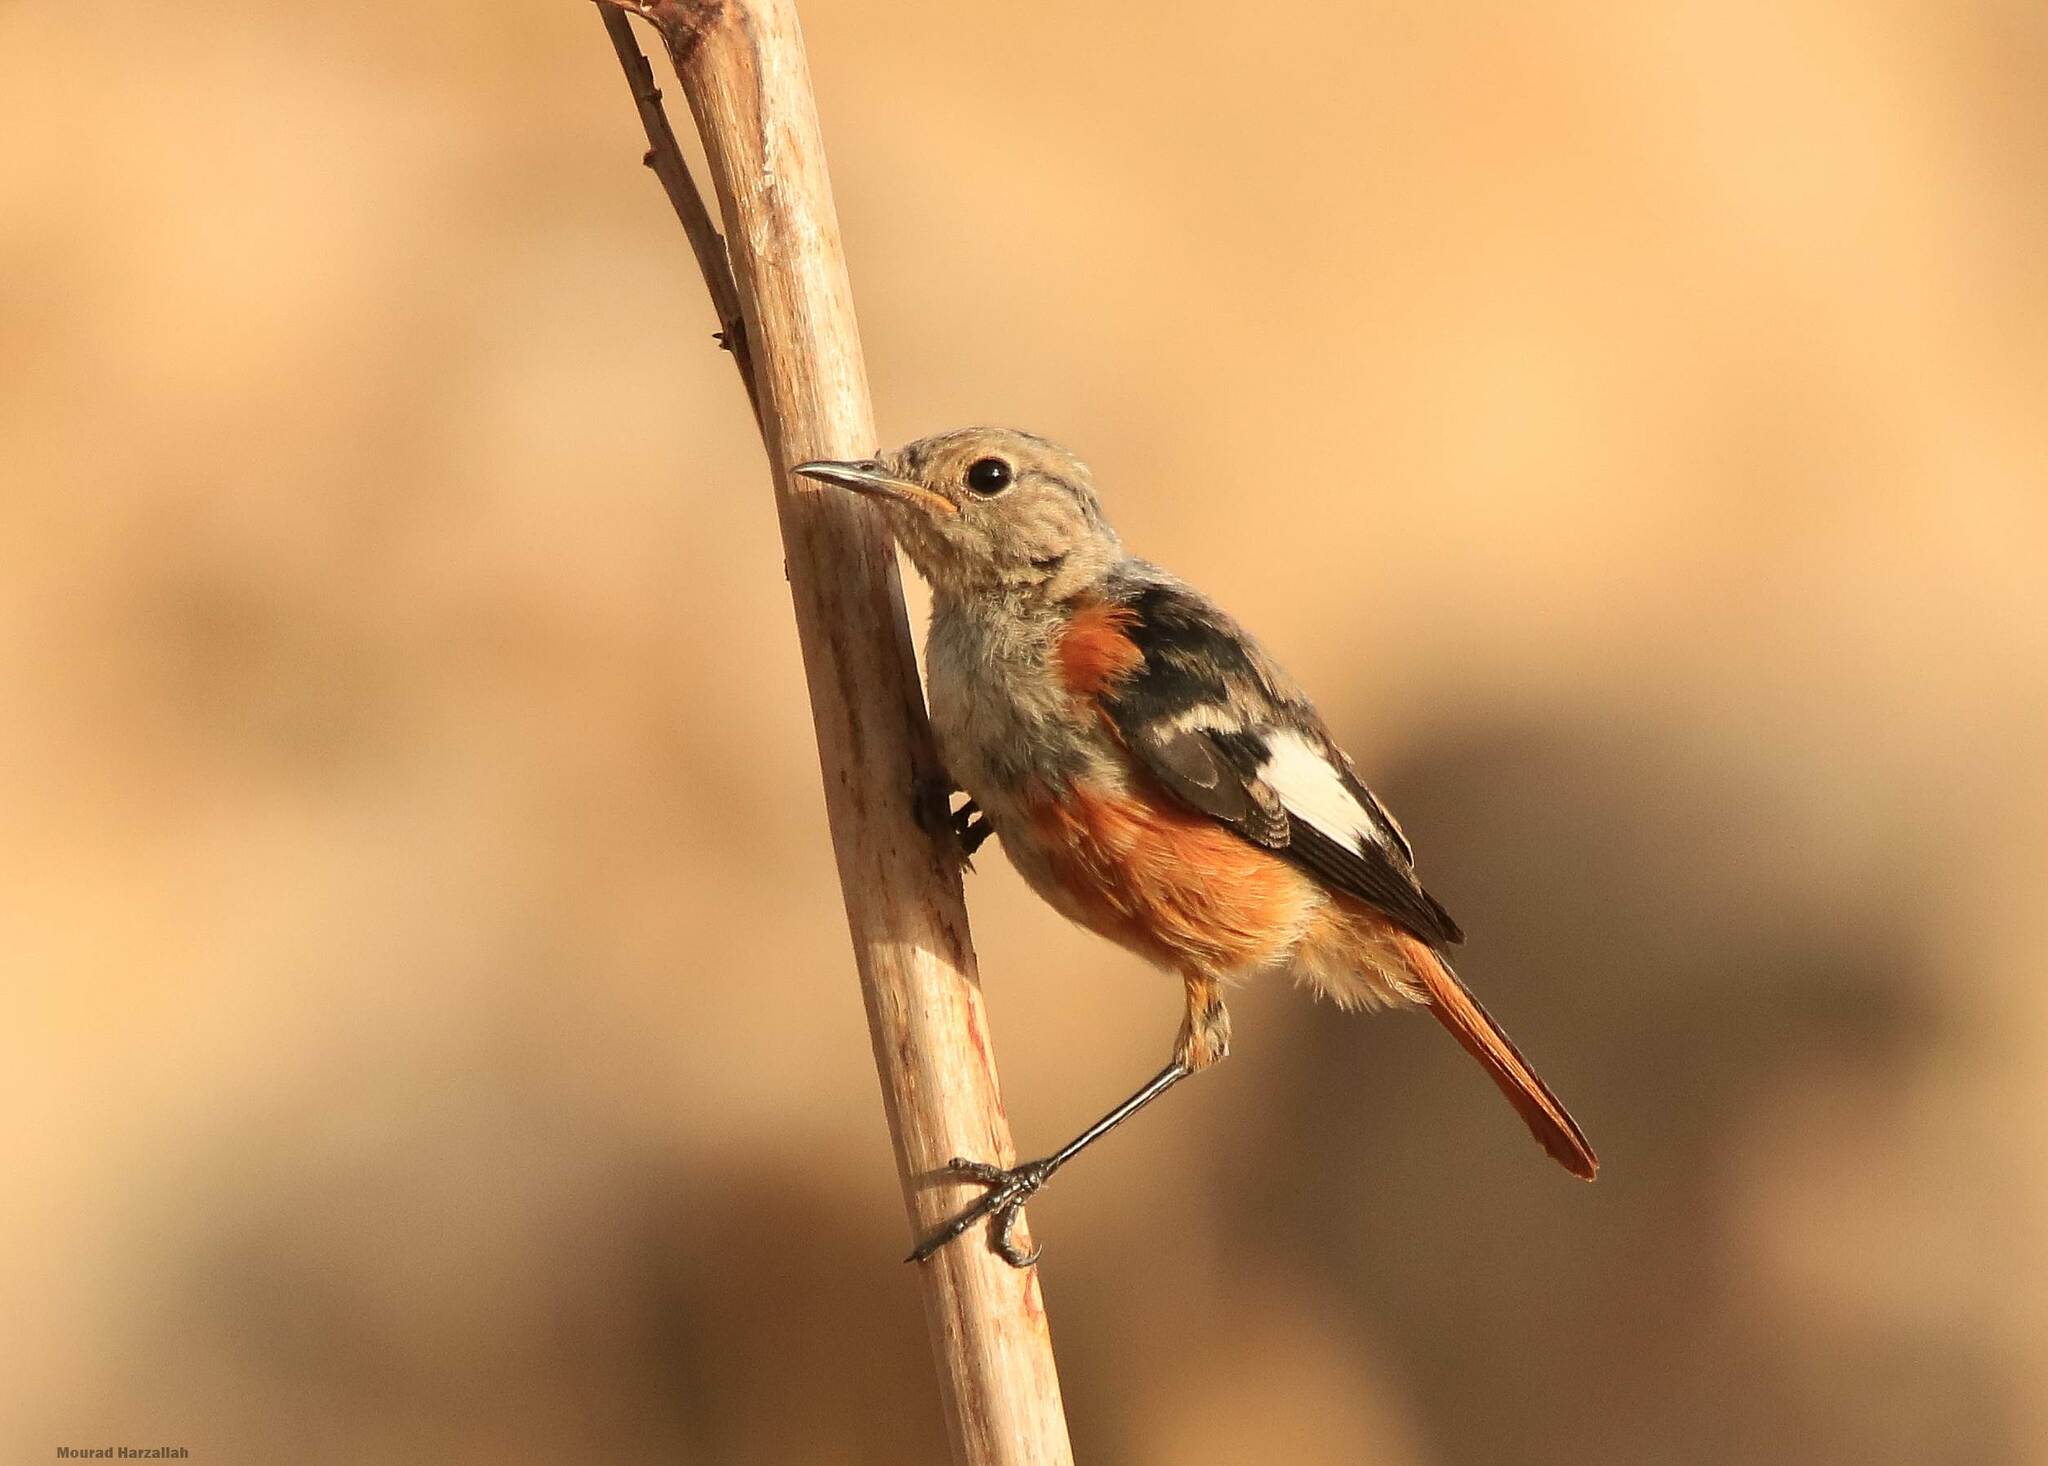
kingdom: Animalia
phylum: Chordata
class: Aves
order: Passeriformes
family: Muscicapidae
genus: Phoenicurus
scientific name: Phoenicurus moussieri
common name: Moussier's redstart
